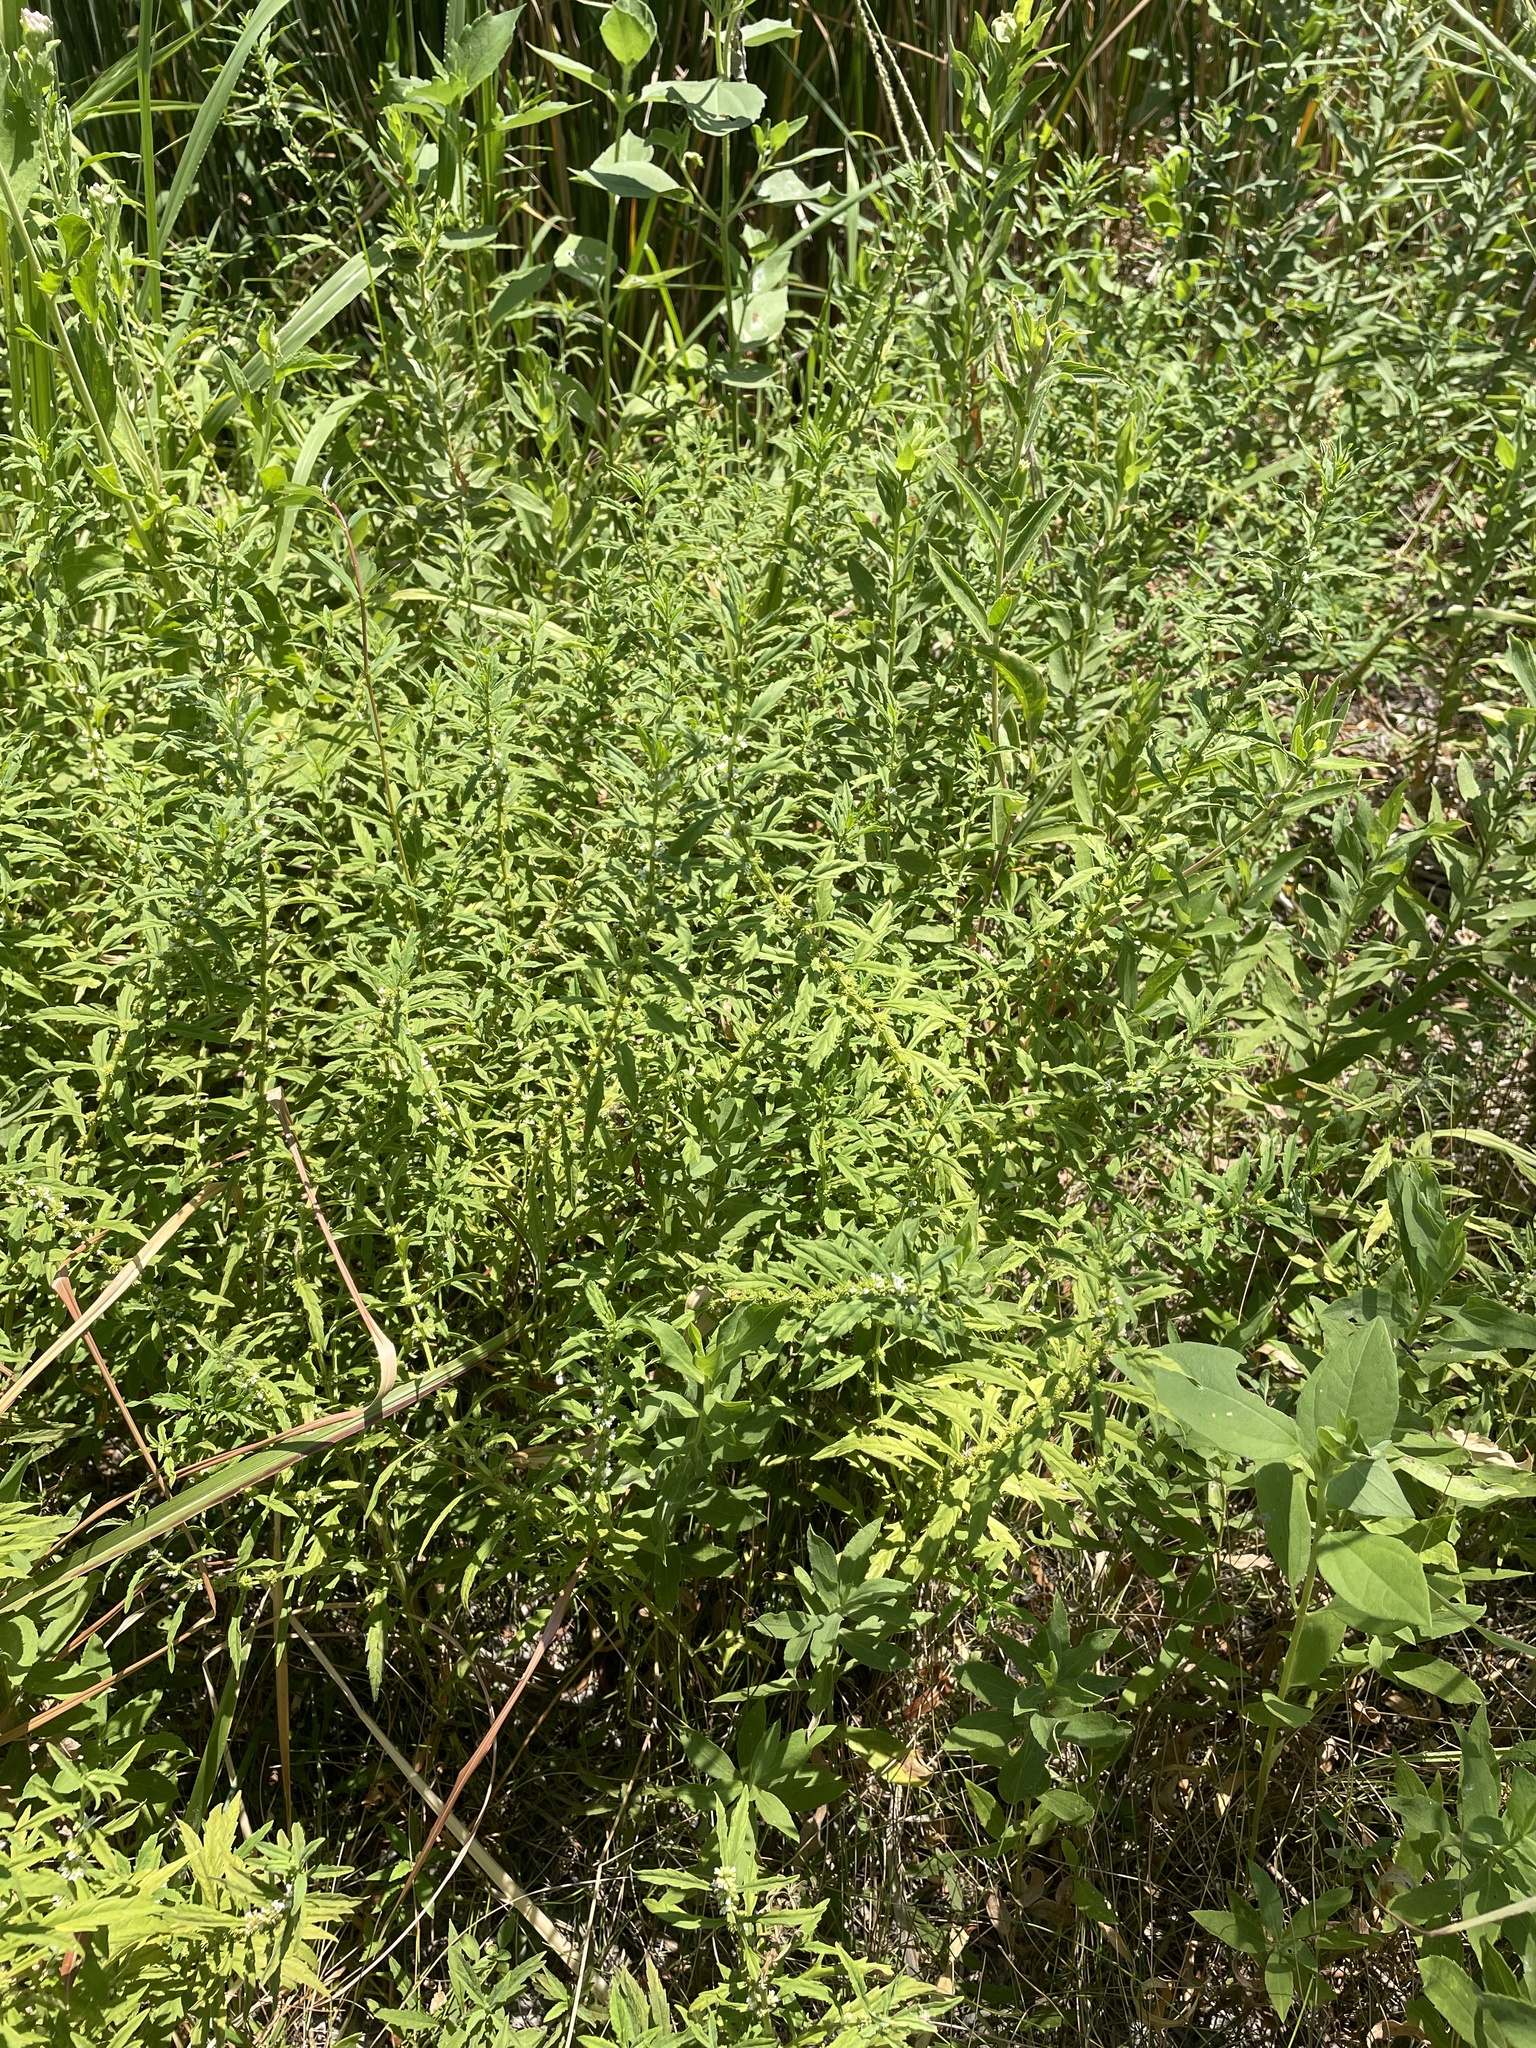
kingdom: Plantae
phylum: Tracheophyta
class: Magnoliopsida
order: Lamiales
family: Lamiaceae
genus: Lycopus
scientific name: Lycopus americanus
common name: American bugleweed
